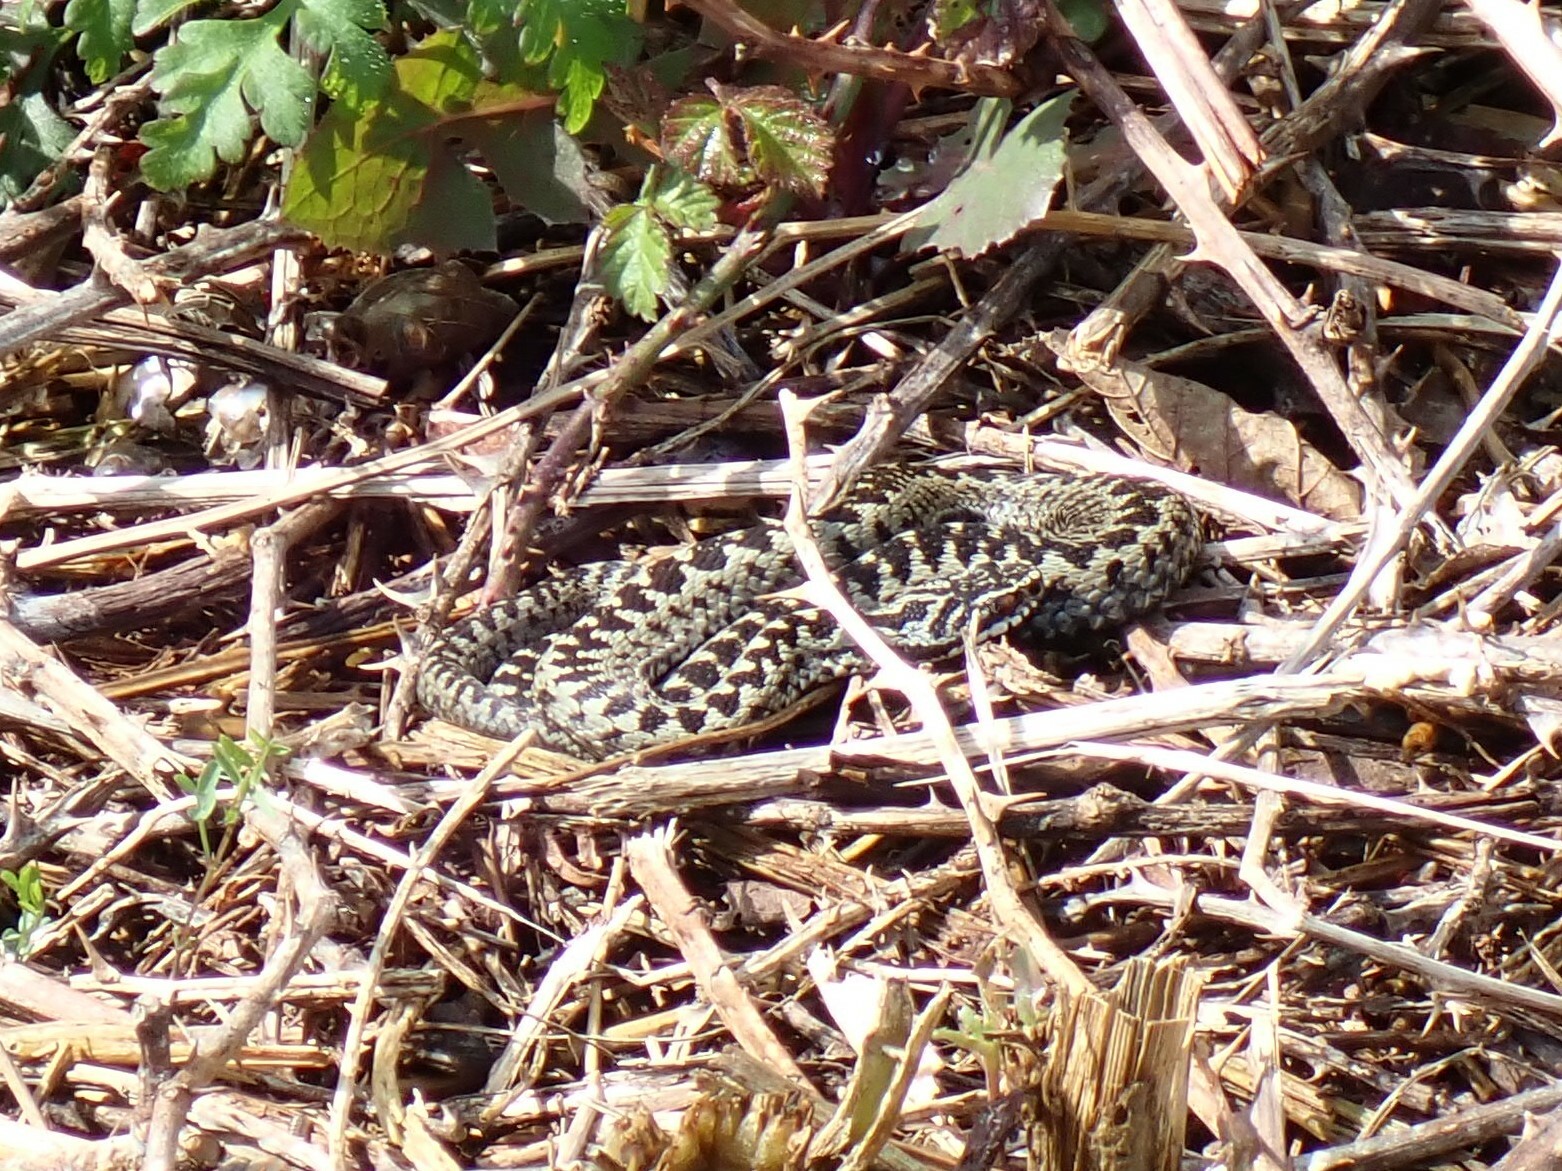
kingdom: Animalia
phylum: Chordata
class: Squamata
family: Viperidae
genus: Vipera
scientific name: Vipera berus
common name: Adder
